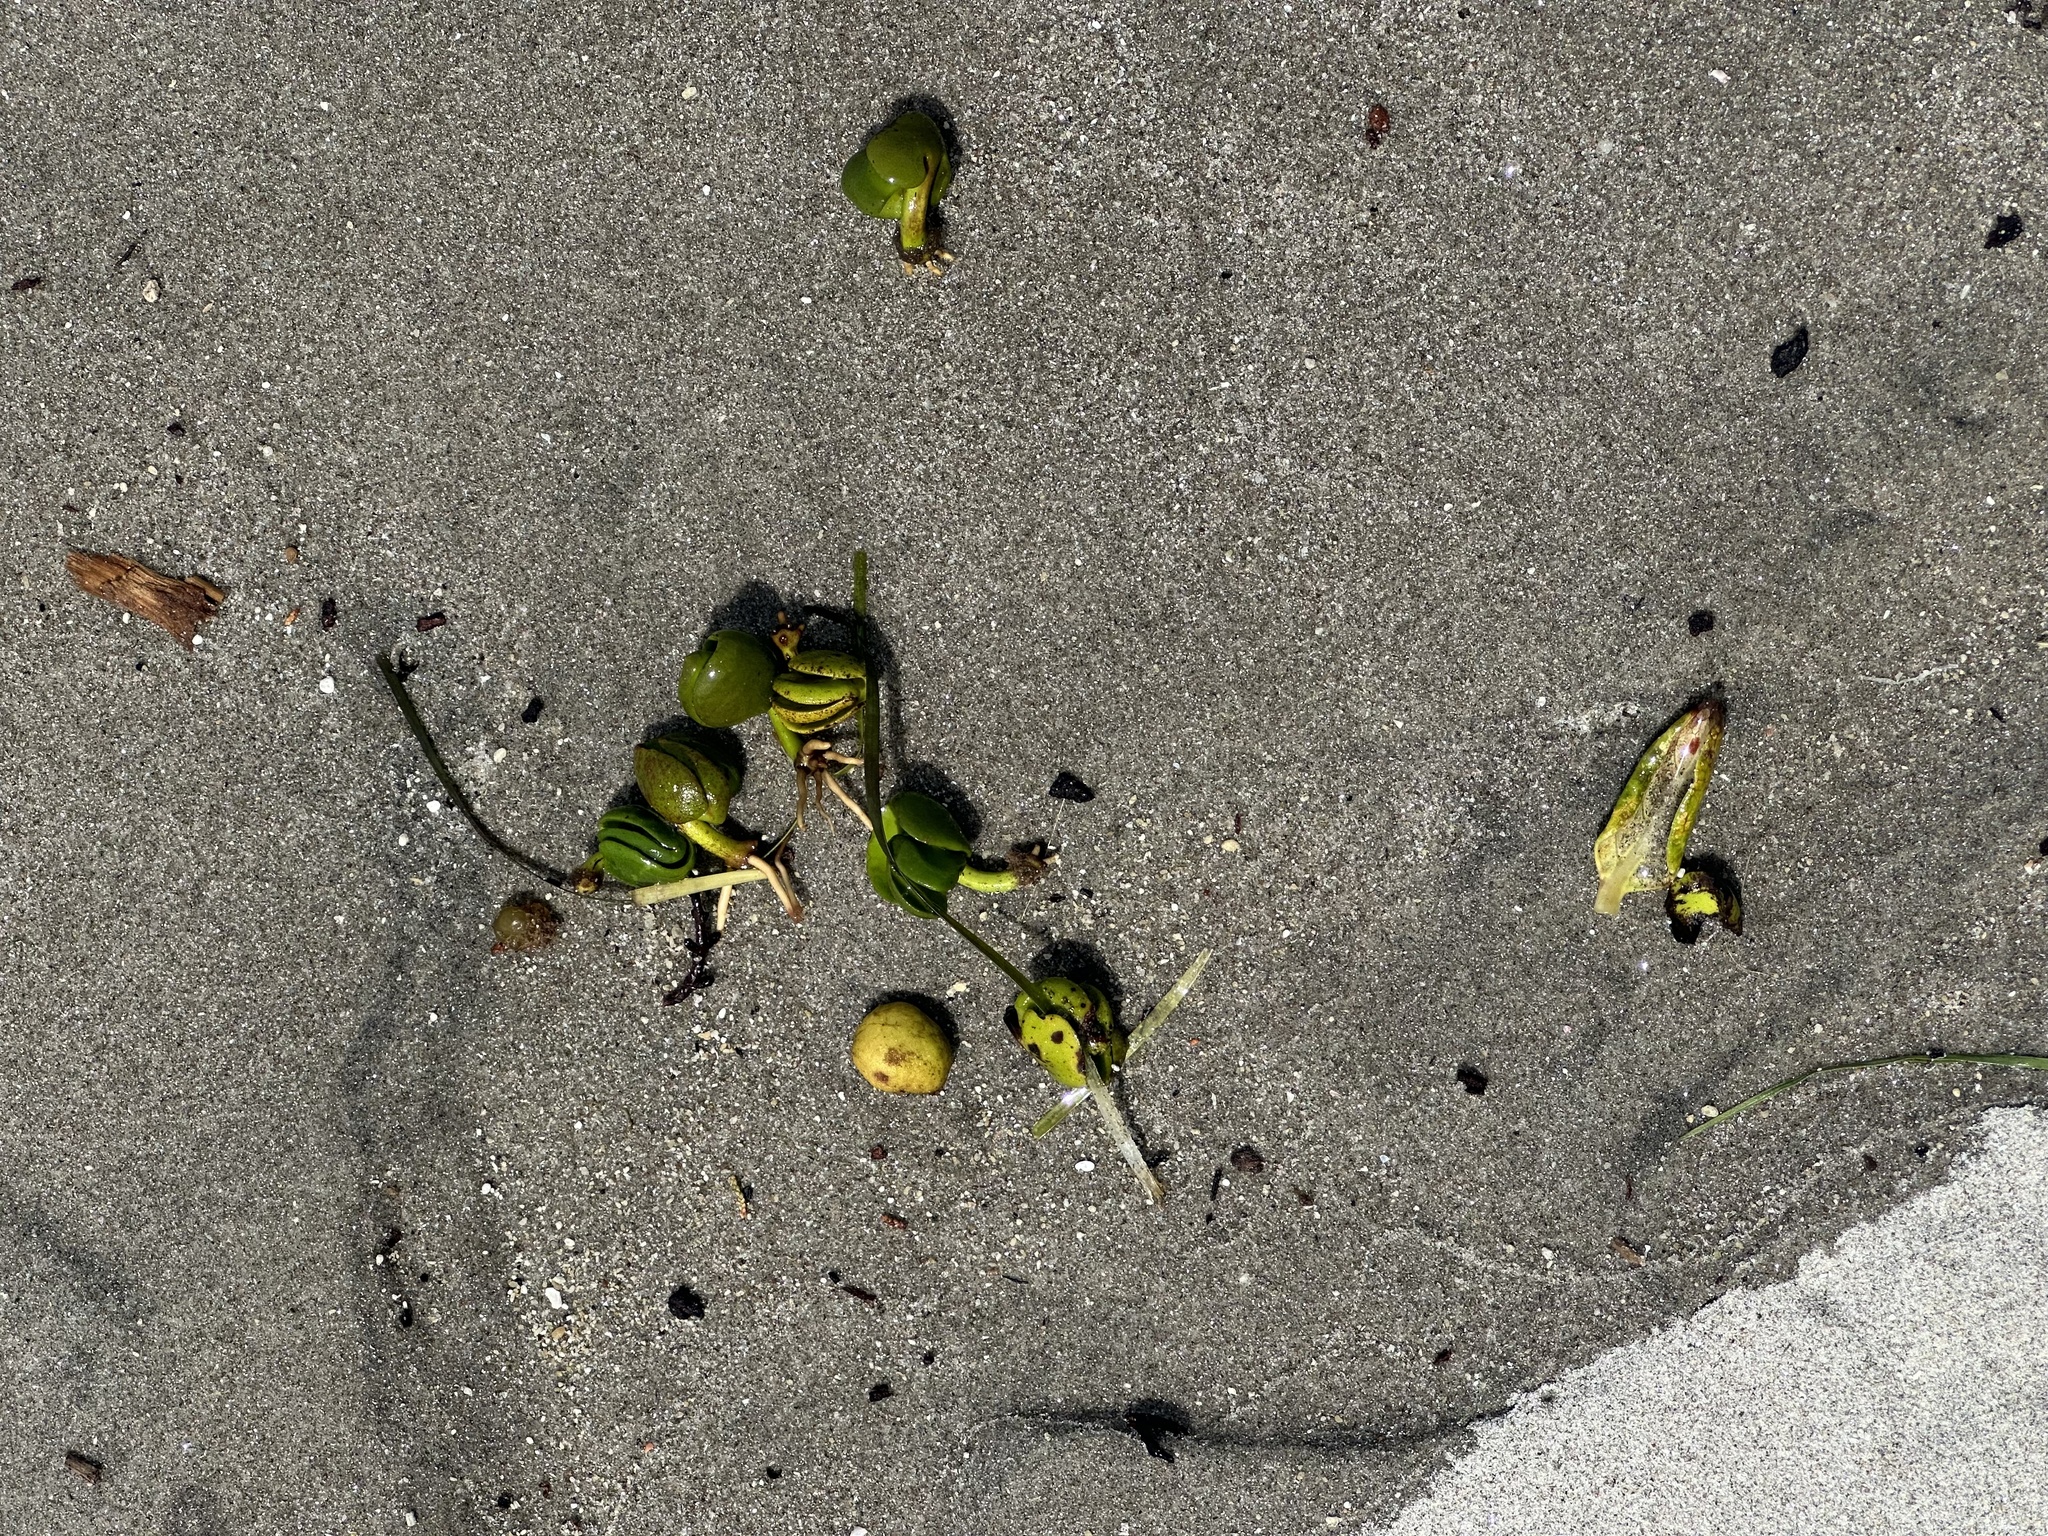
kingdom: Plantae
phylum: Tracheophyta
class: Magnoliopsida
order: Lamiales
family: Acanthaceae
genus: Avicennia
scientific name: Avicennia marina
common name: Gray mangrove
